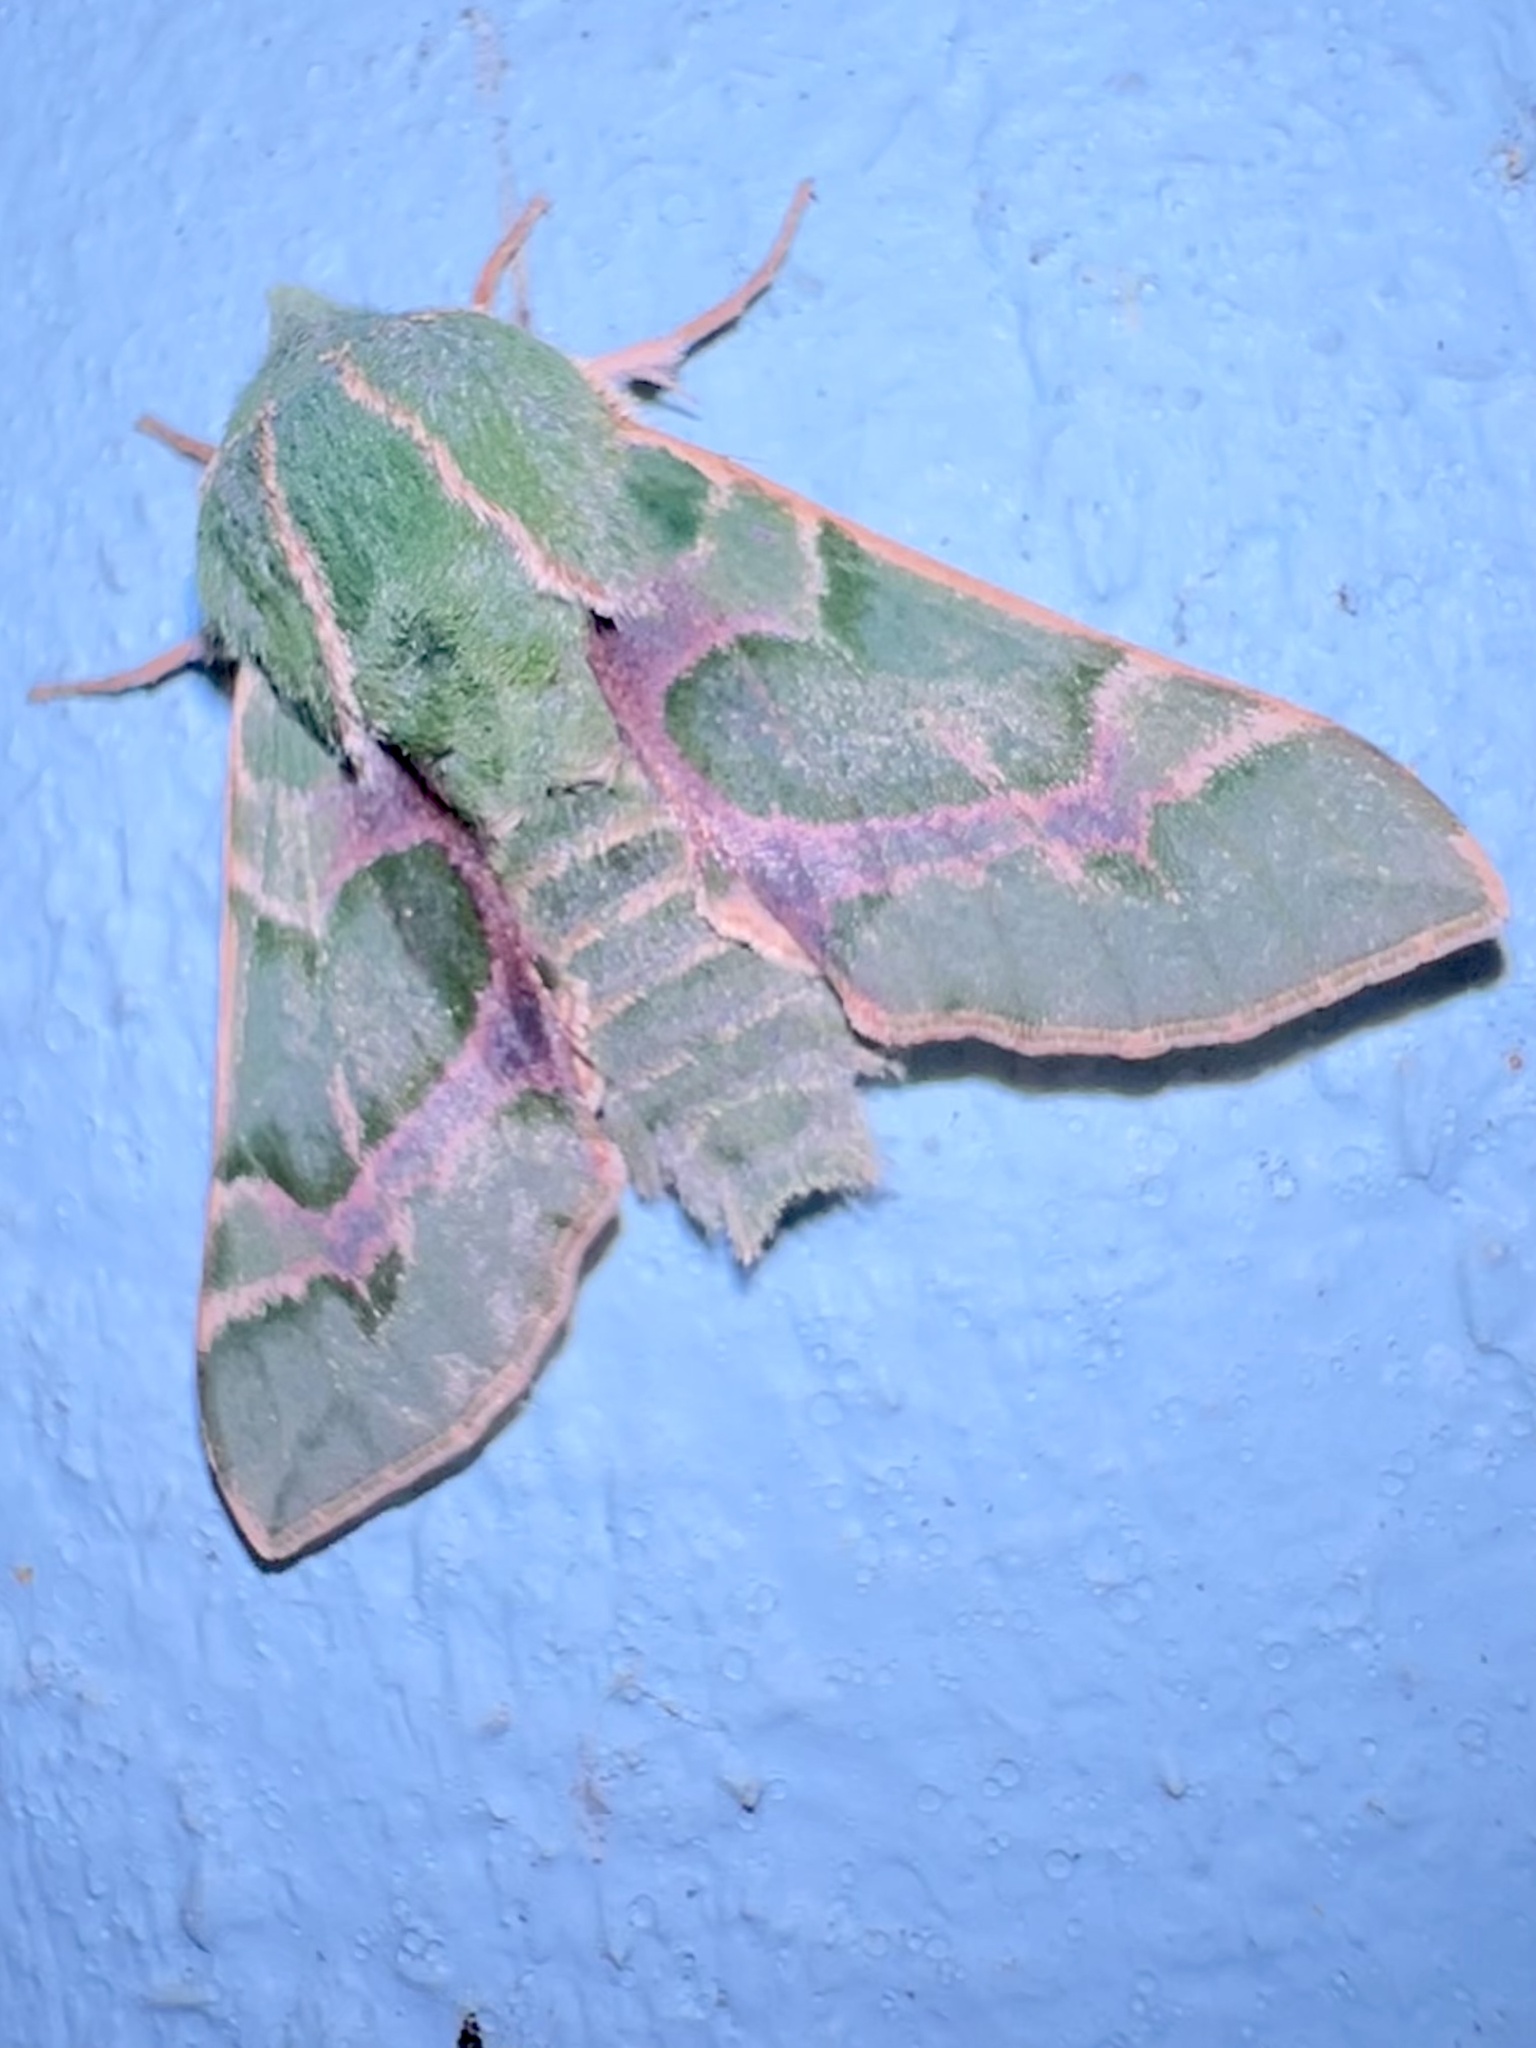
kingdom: Animalia
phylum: Arthropoda
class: Insecta
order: Lepidoptera
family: Sphingidae
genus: Proserpinus
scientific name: Proserpinus lucidus
